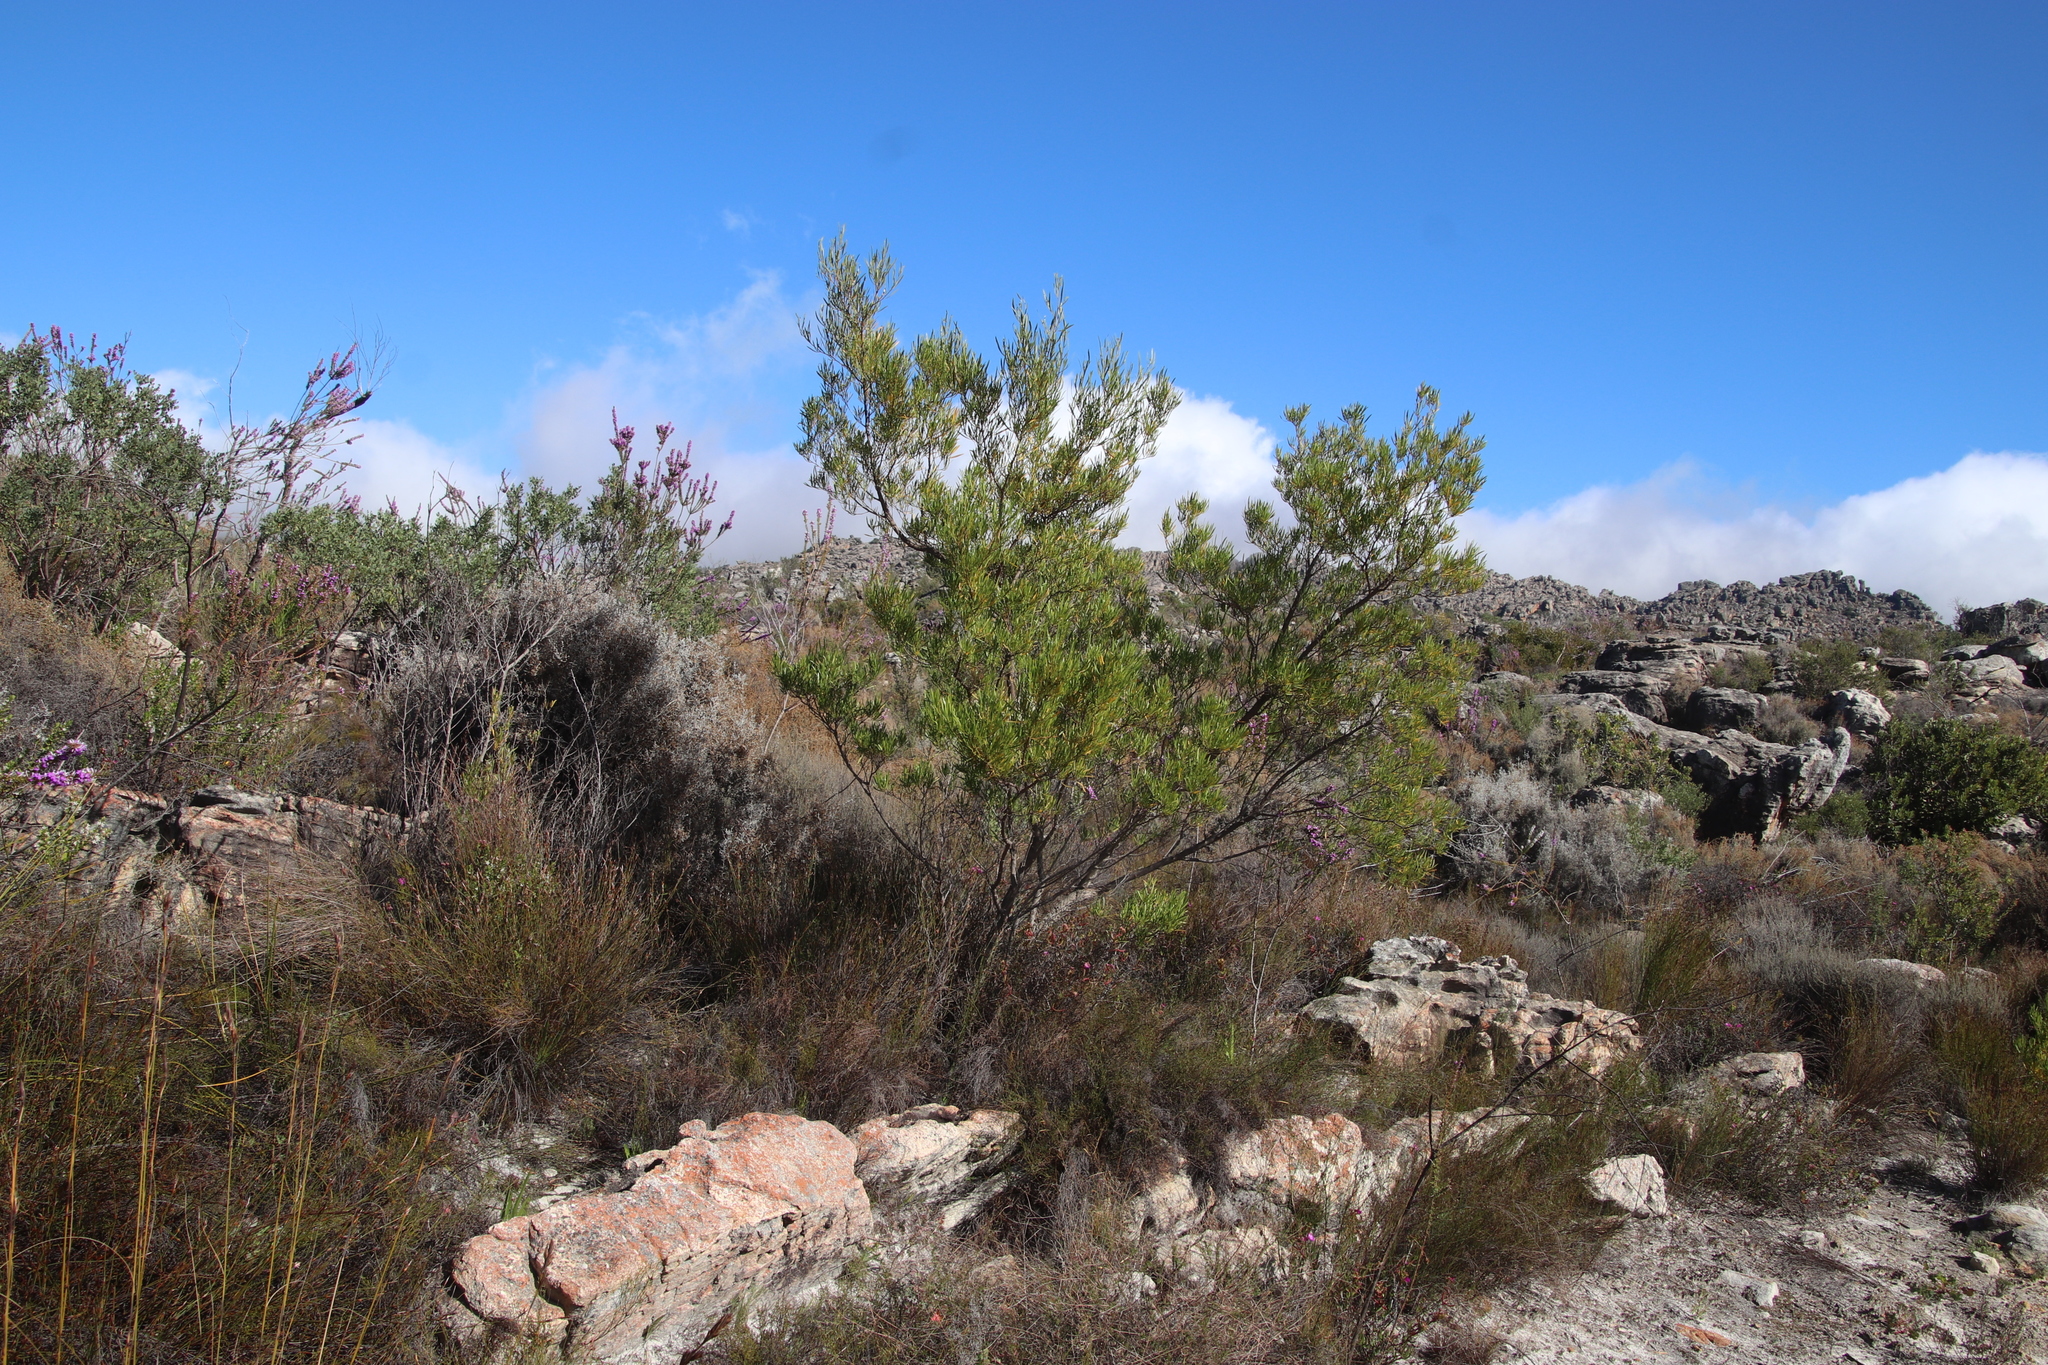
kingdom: Plantae
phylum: Tracheophyta
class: Magnoliopsida
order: Sapindales
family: Sapindaceae
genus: Dodonaea
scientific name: Dodonaea viscosa
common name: Hopbush
